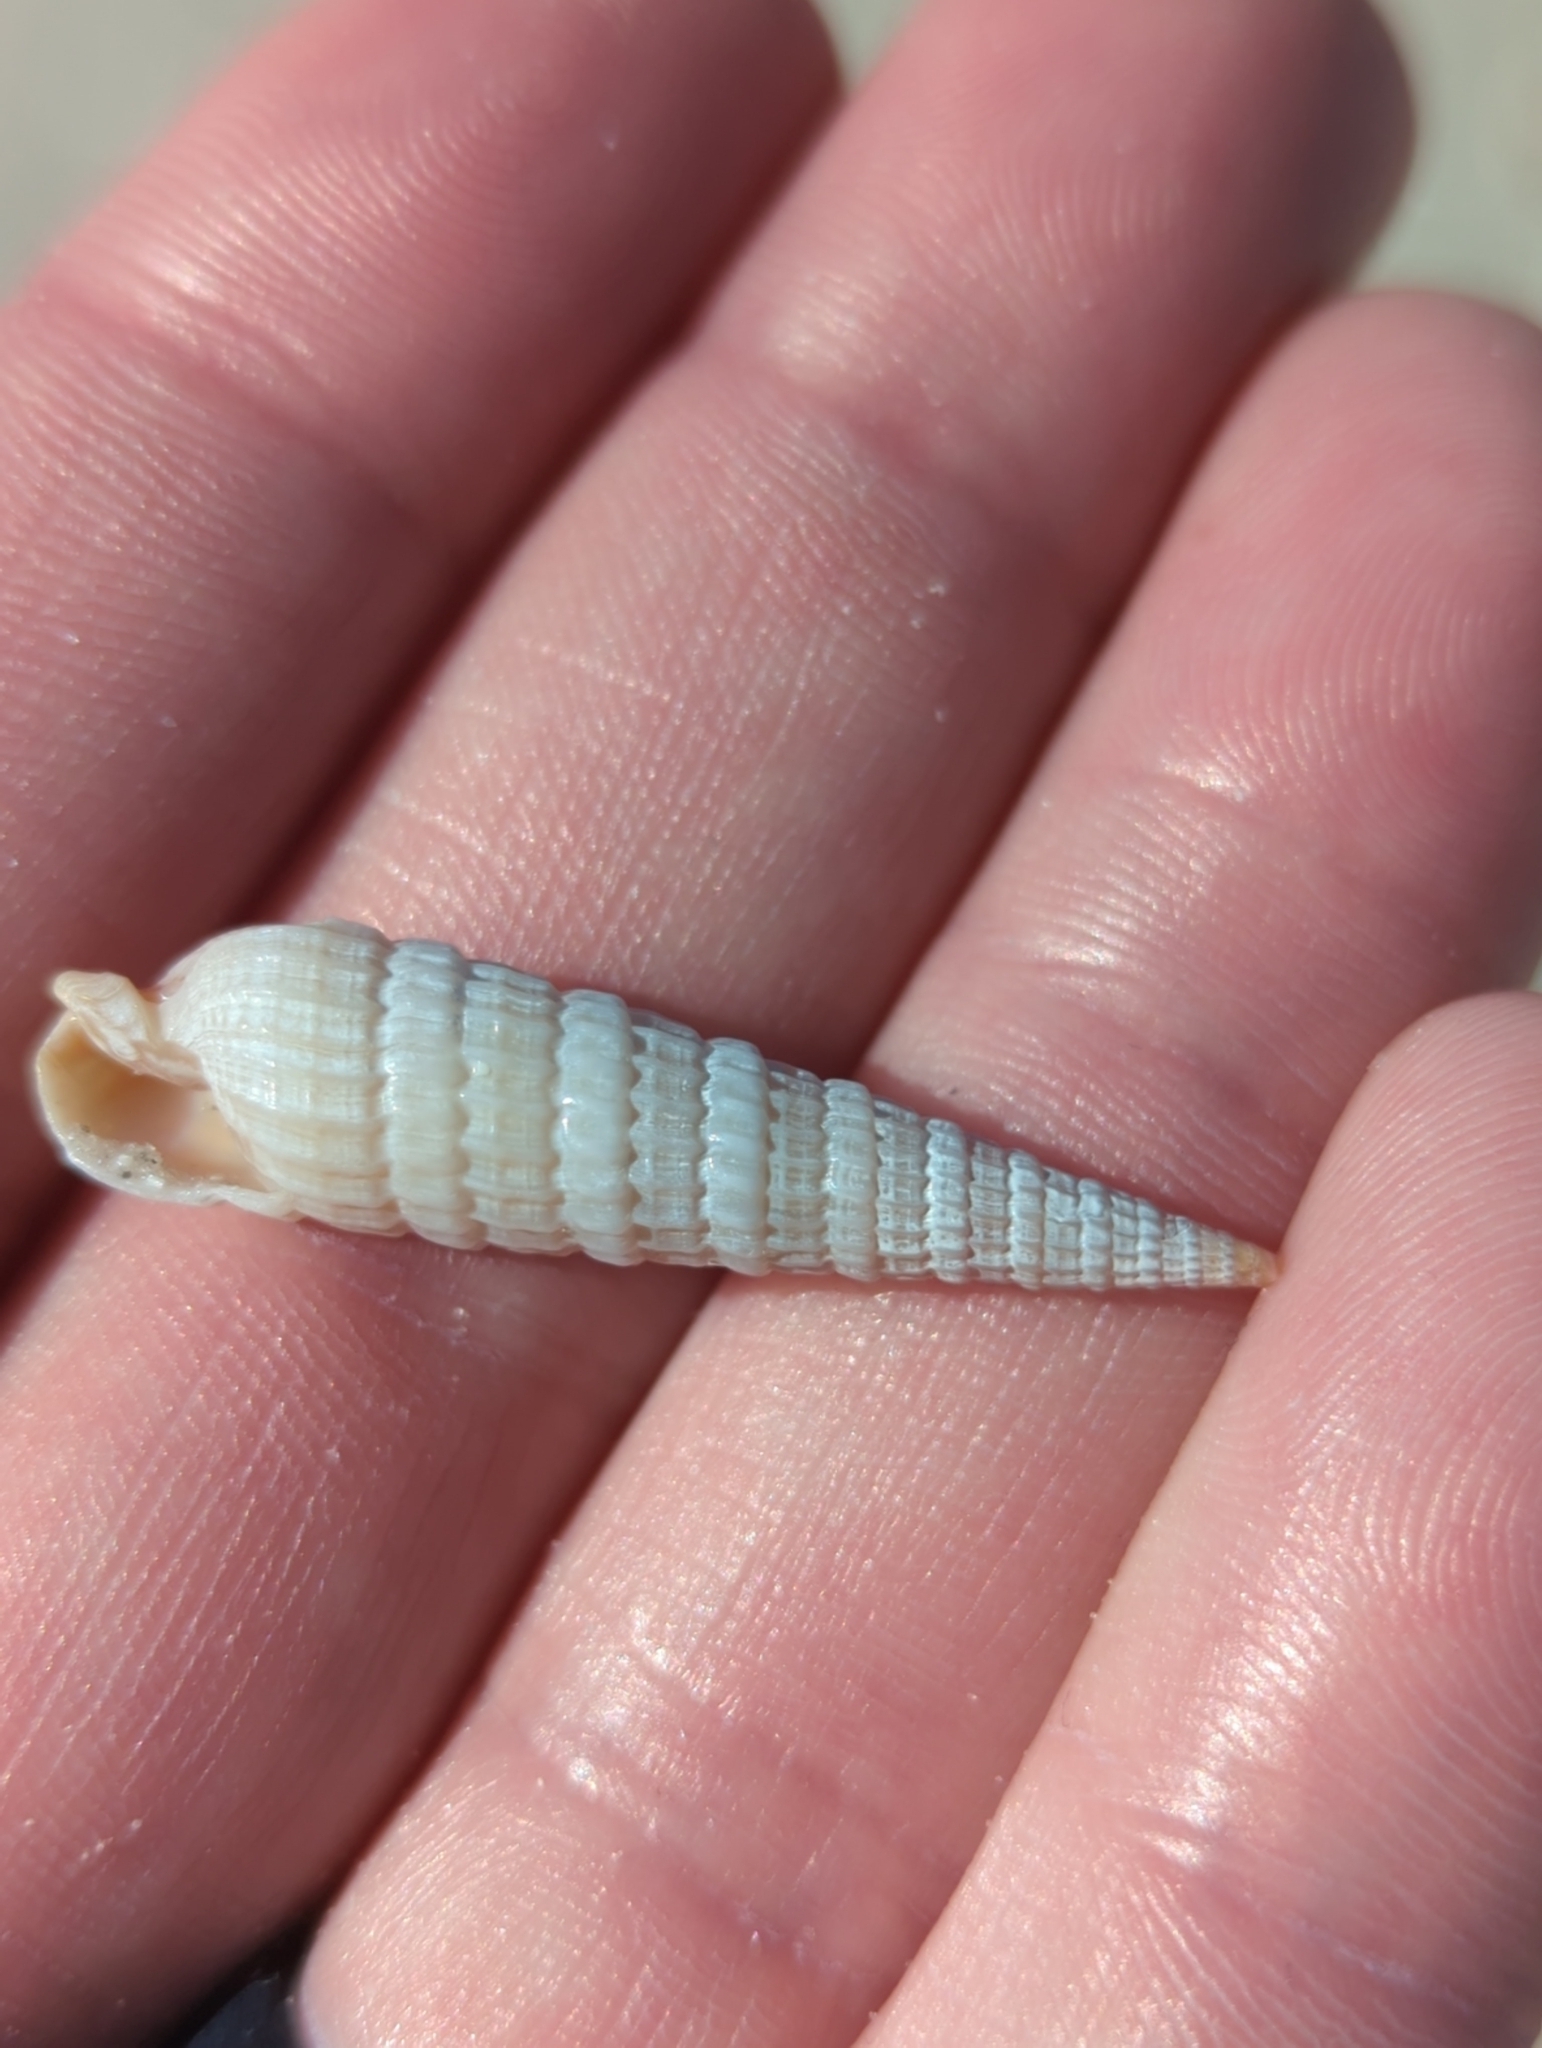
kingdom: Animalia
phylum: Mollusca
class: Gastropoda
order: Neogastropoda
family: Terebridae
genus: Neoterebra
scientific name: Neoterebra dislocata
